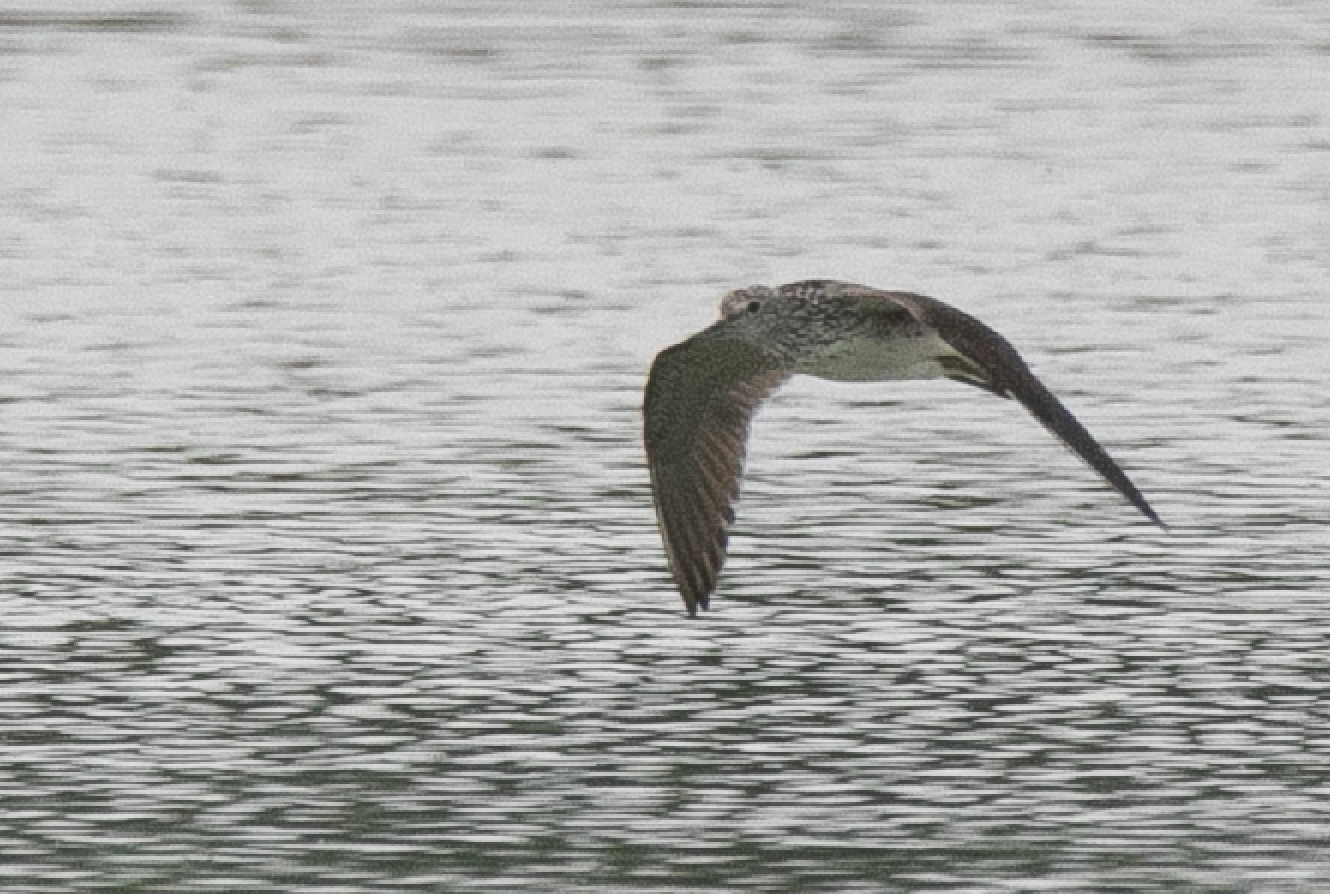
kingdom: Animalia
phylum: Chordata
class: Aves
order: Charadriiformes
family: Scolopacidae
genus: Tringa
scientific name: Tringa nebularia
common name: Common greenshank
